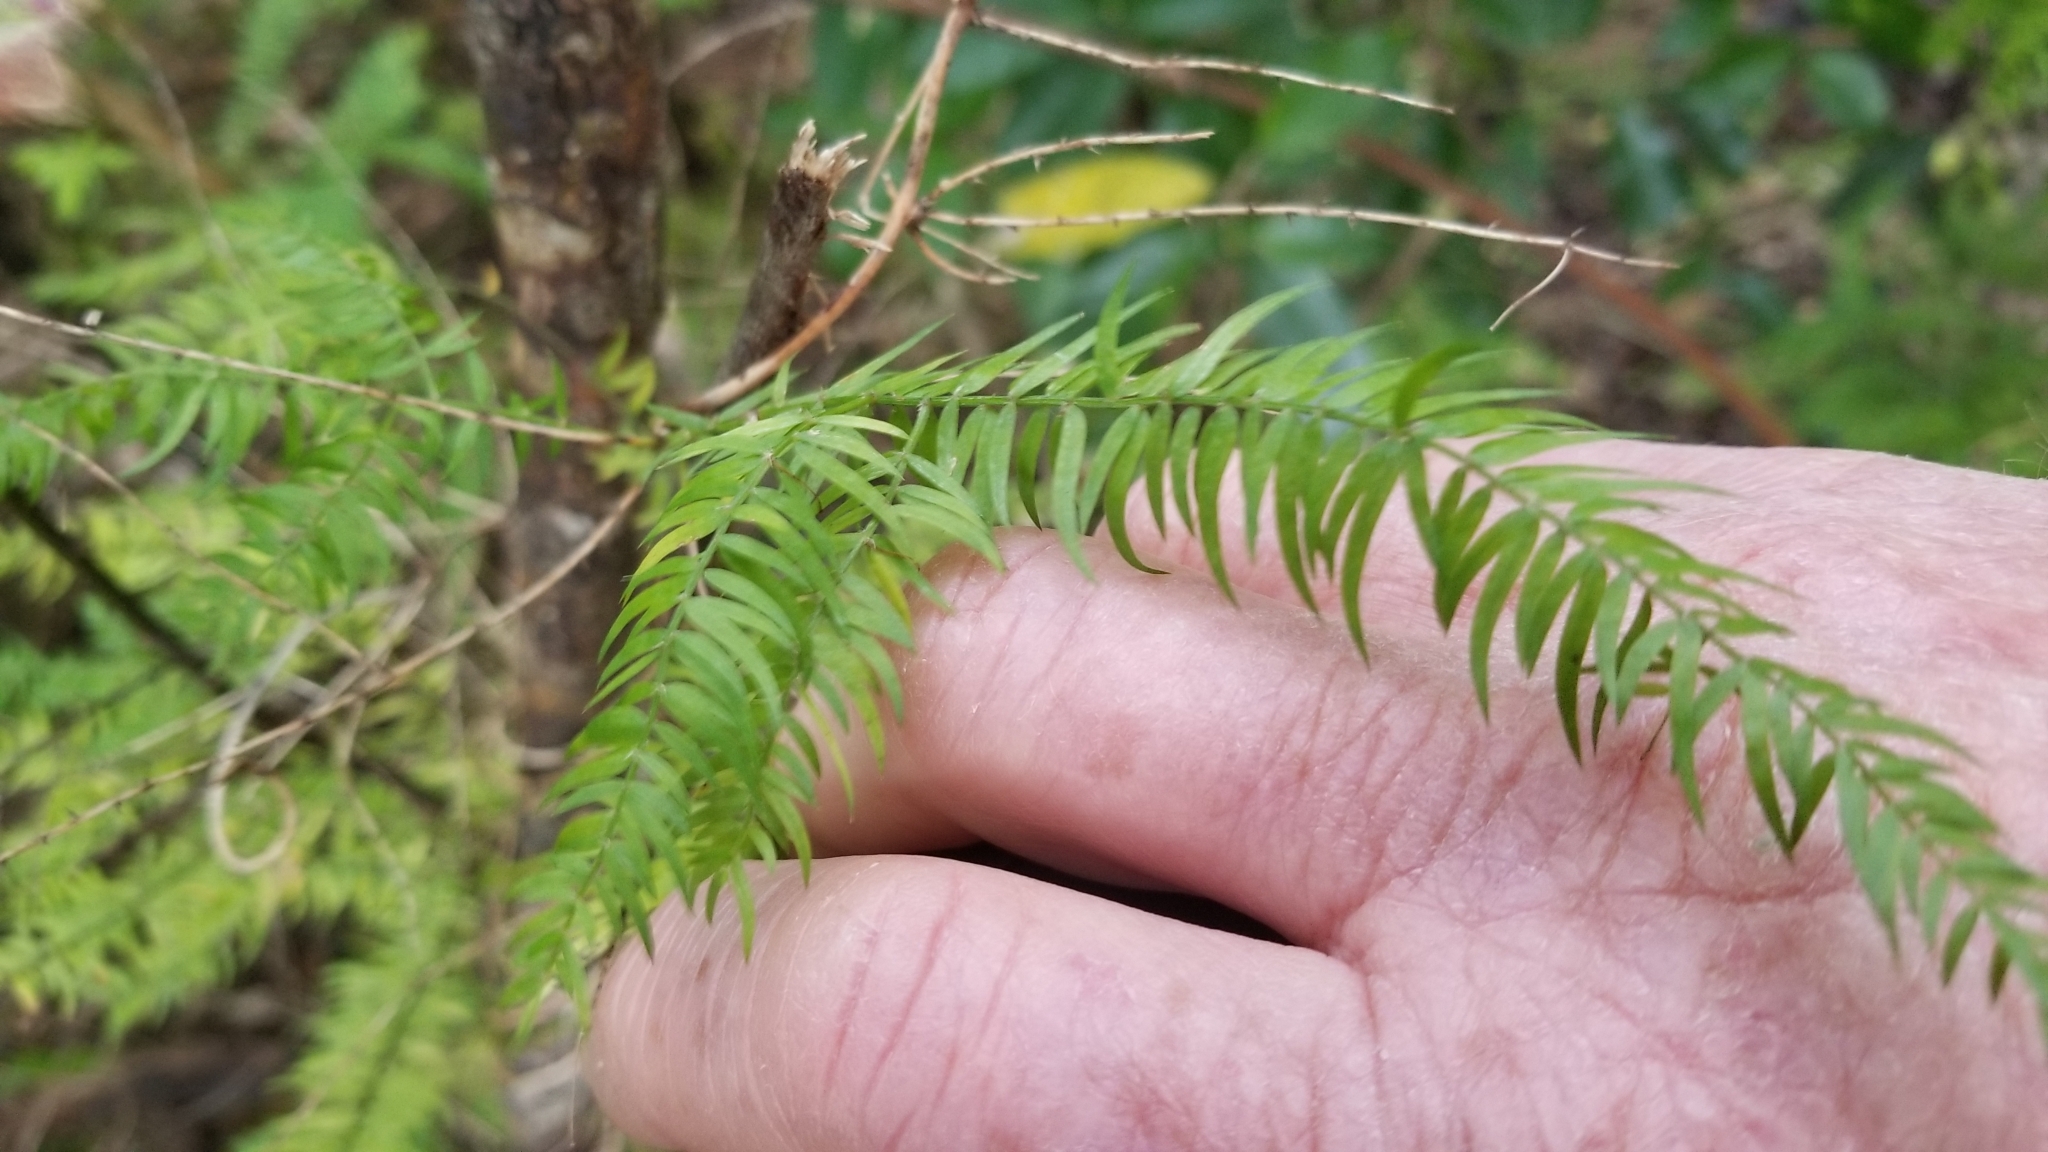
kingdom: Plantae
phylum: Tracheophyta
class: Liliopsida
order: Asparagales
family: Asparagaceae
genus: Asparagus
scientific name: Asparagus scandens
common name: Asparagus-fern
